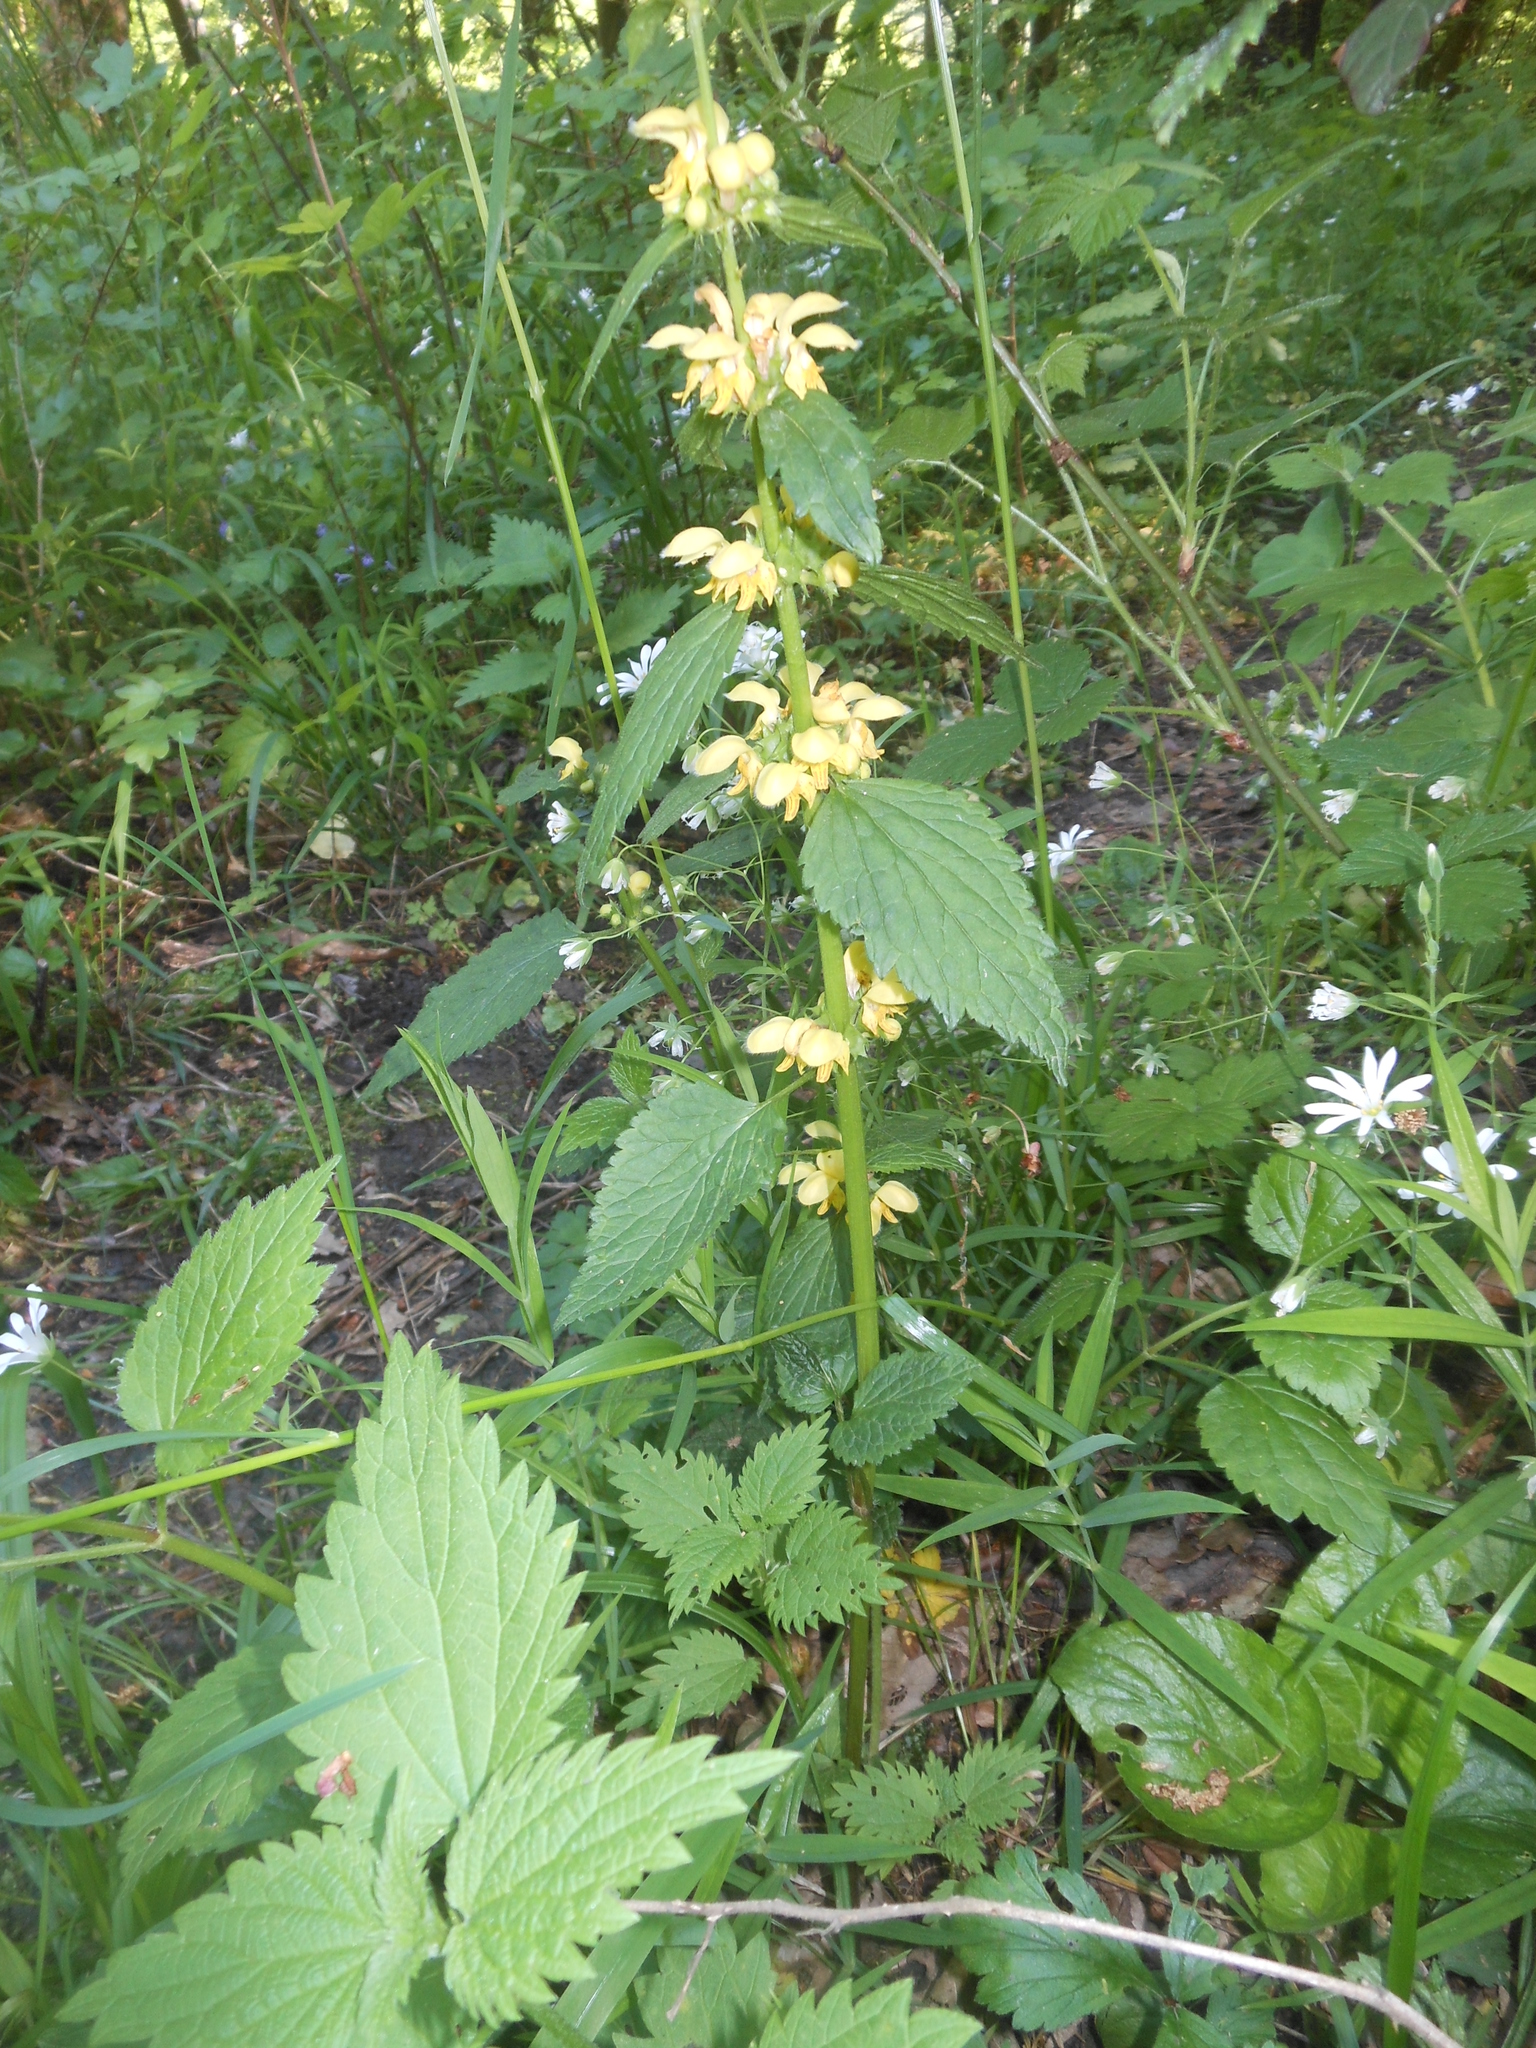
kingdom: Plantae
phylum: Tracheophyta
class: Magnoliopsida
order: Lamiales
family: Lamiaceae
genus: Lamium
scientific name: Lamium galeobdolon
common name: Yellow archangel
